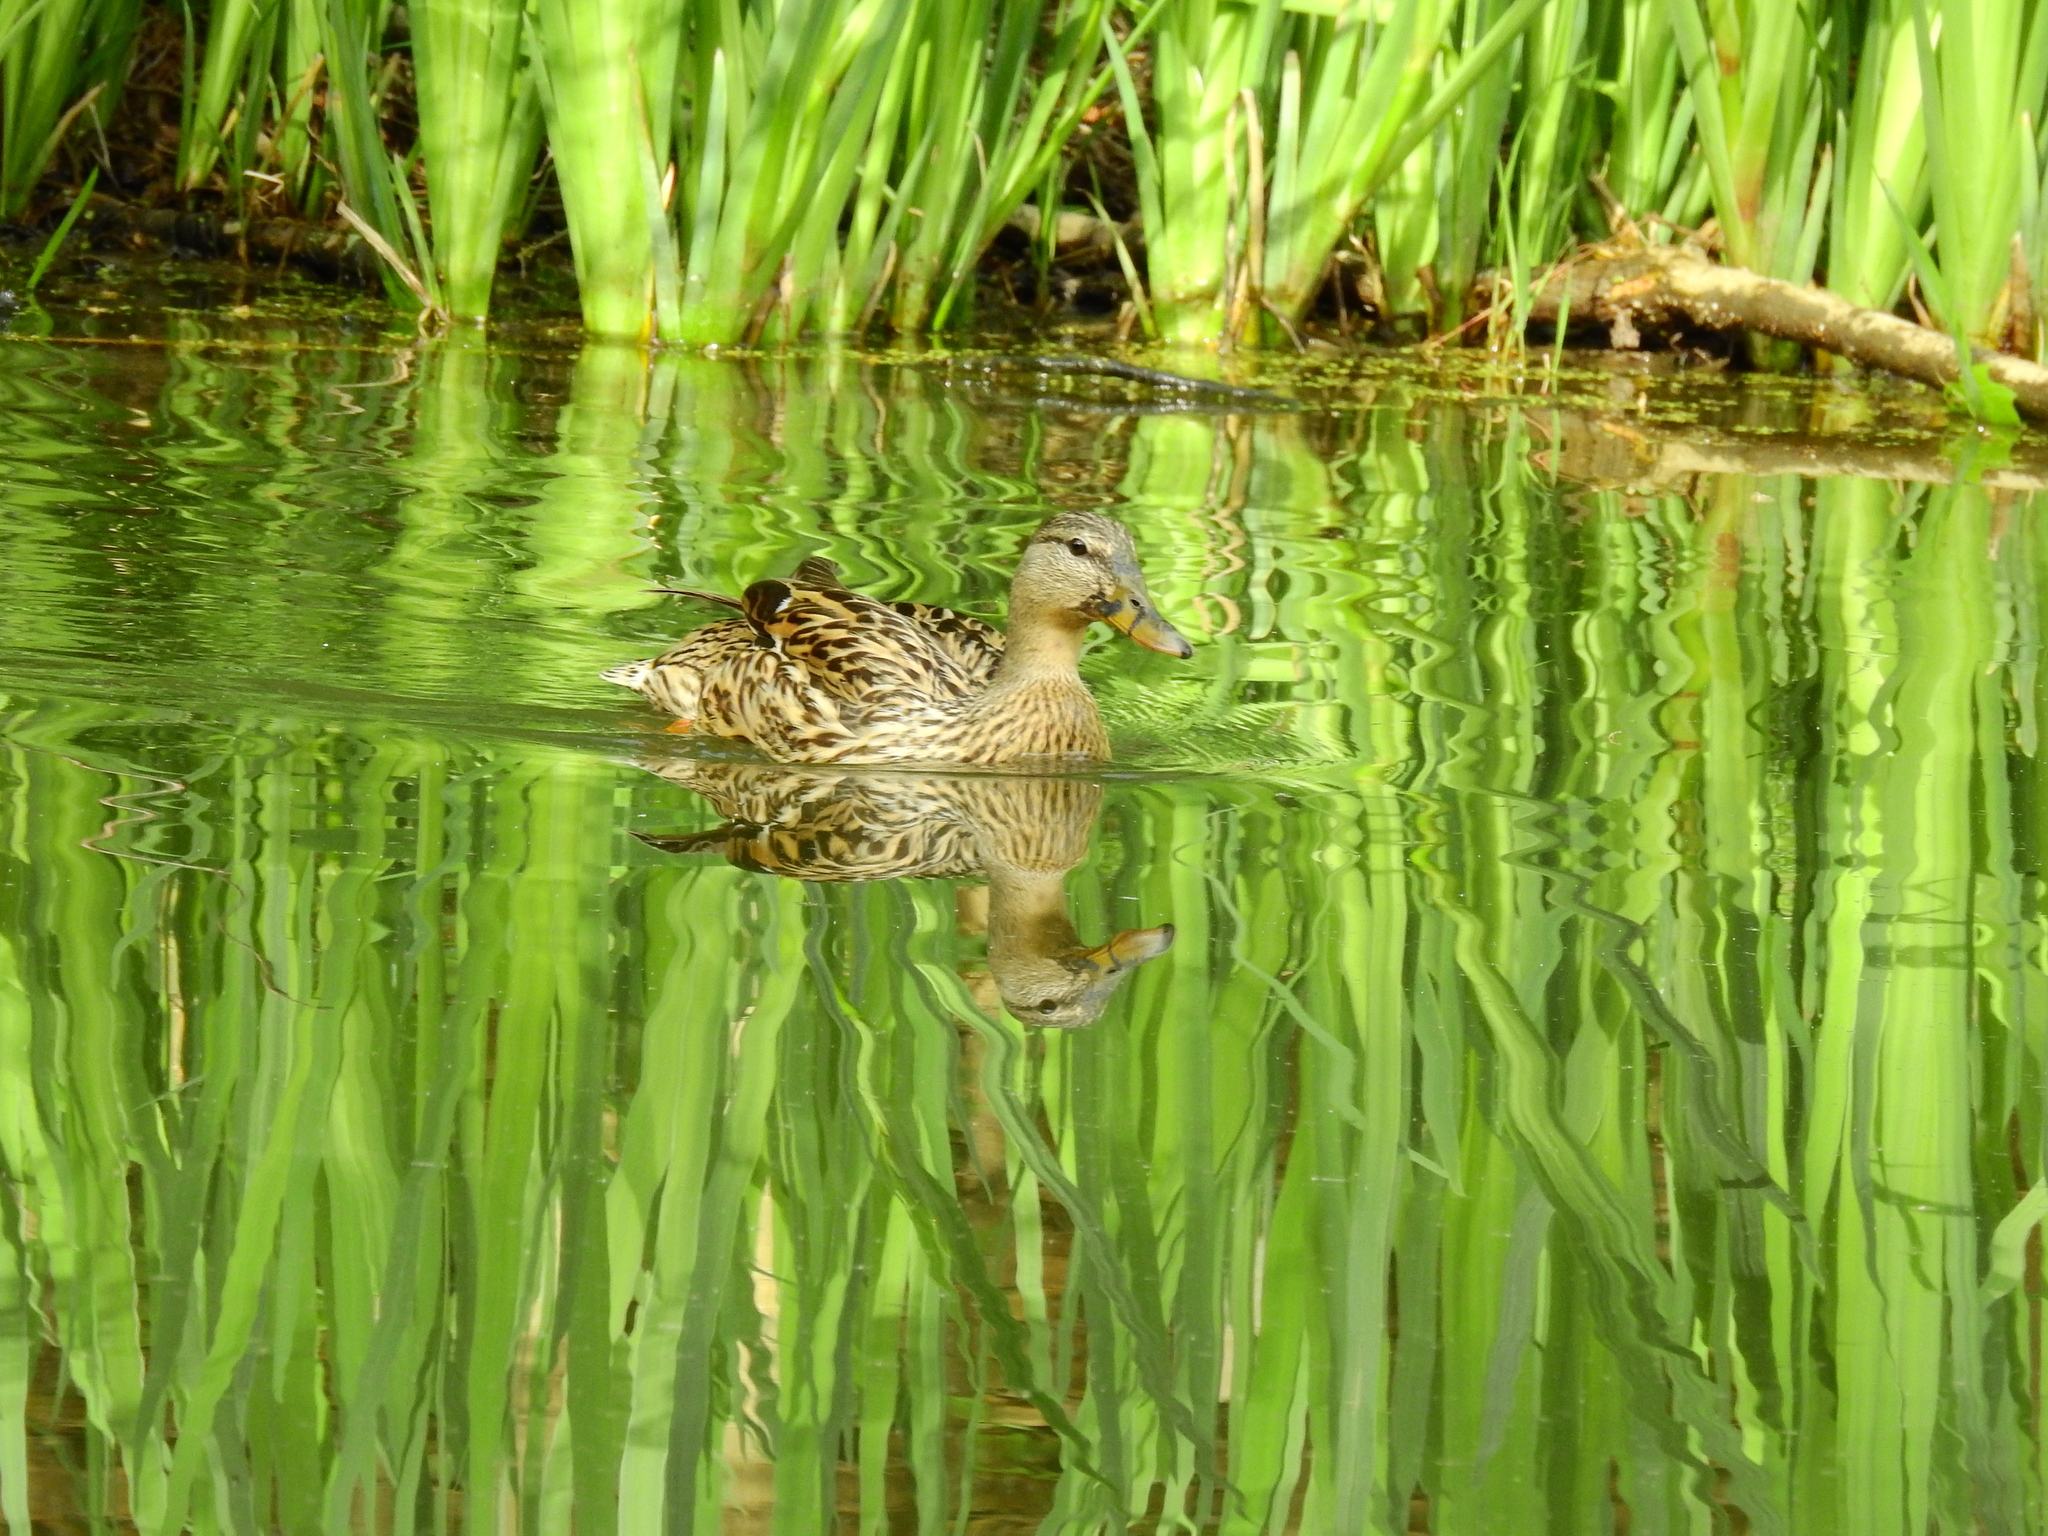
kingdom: Animalia
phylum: Chordata
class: Aves
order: Anseriformes
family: Anatidae
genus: Anas
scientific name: Anas platyrhynchos
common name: Mallard
